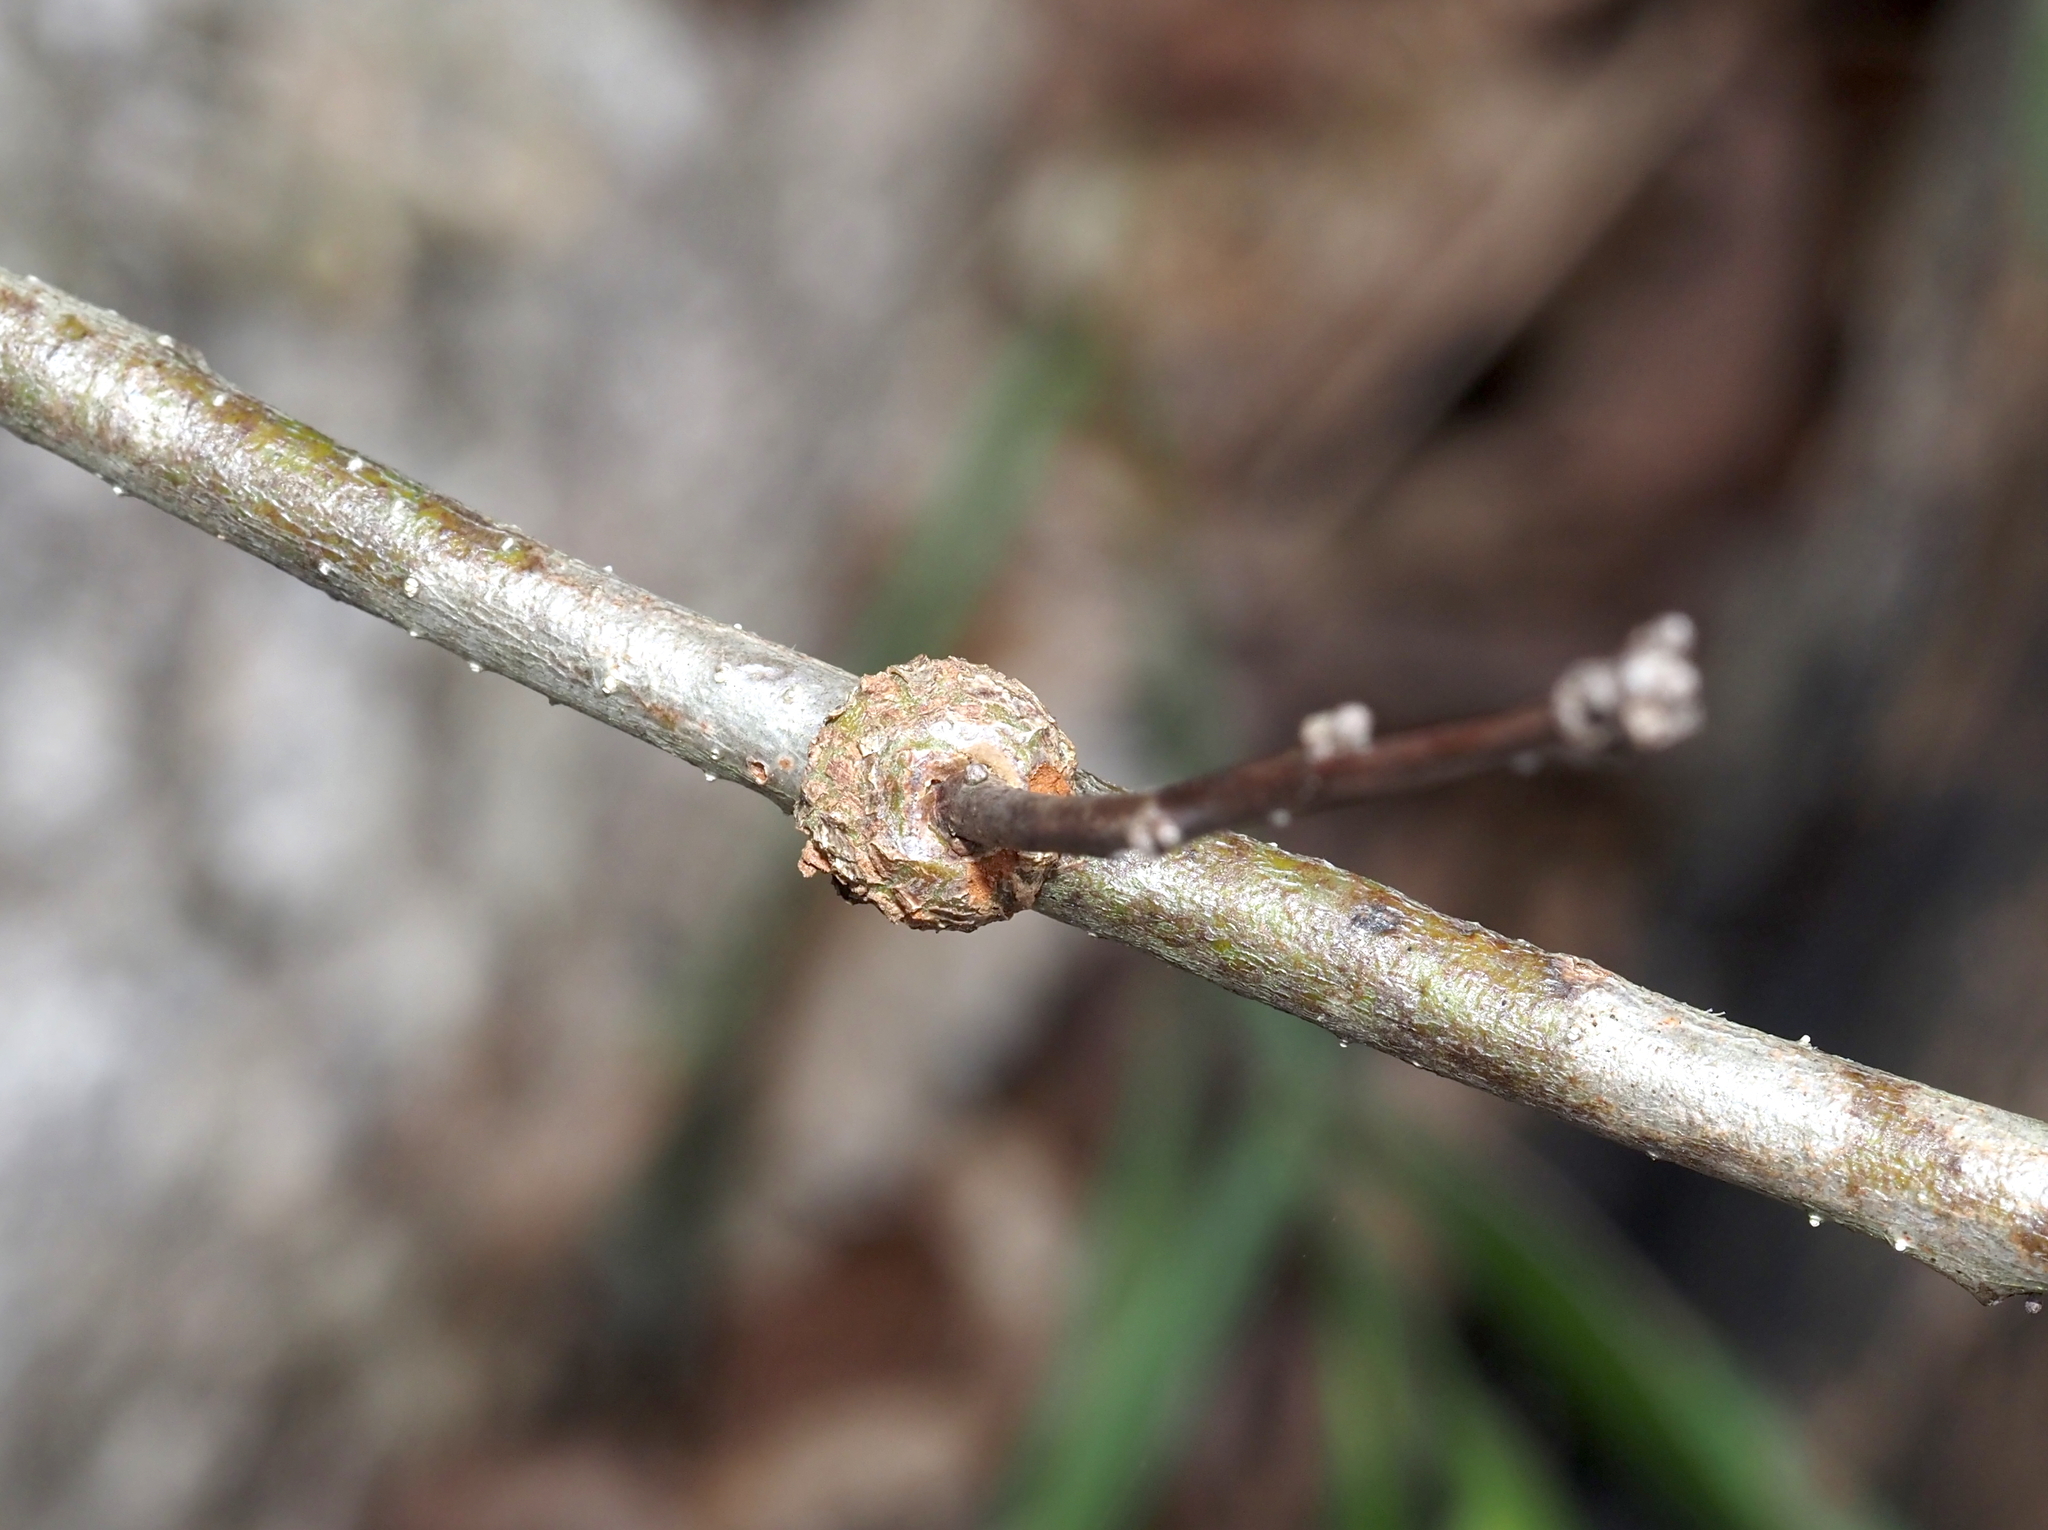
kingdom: Animalia
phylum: Arthropoda
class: Insecta
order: Hymenoptera
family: Cynipidae
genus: Loxaulus
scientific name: Loxaulus
